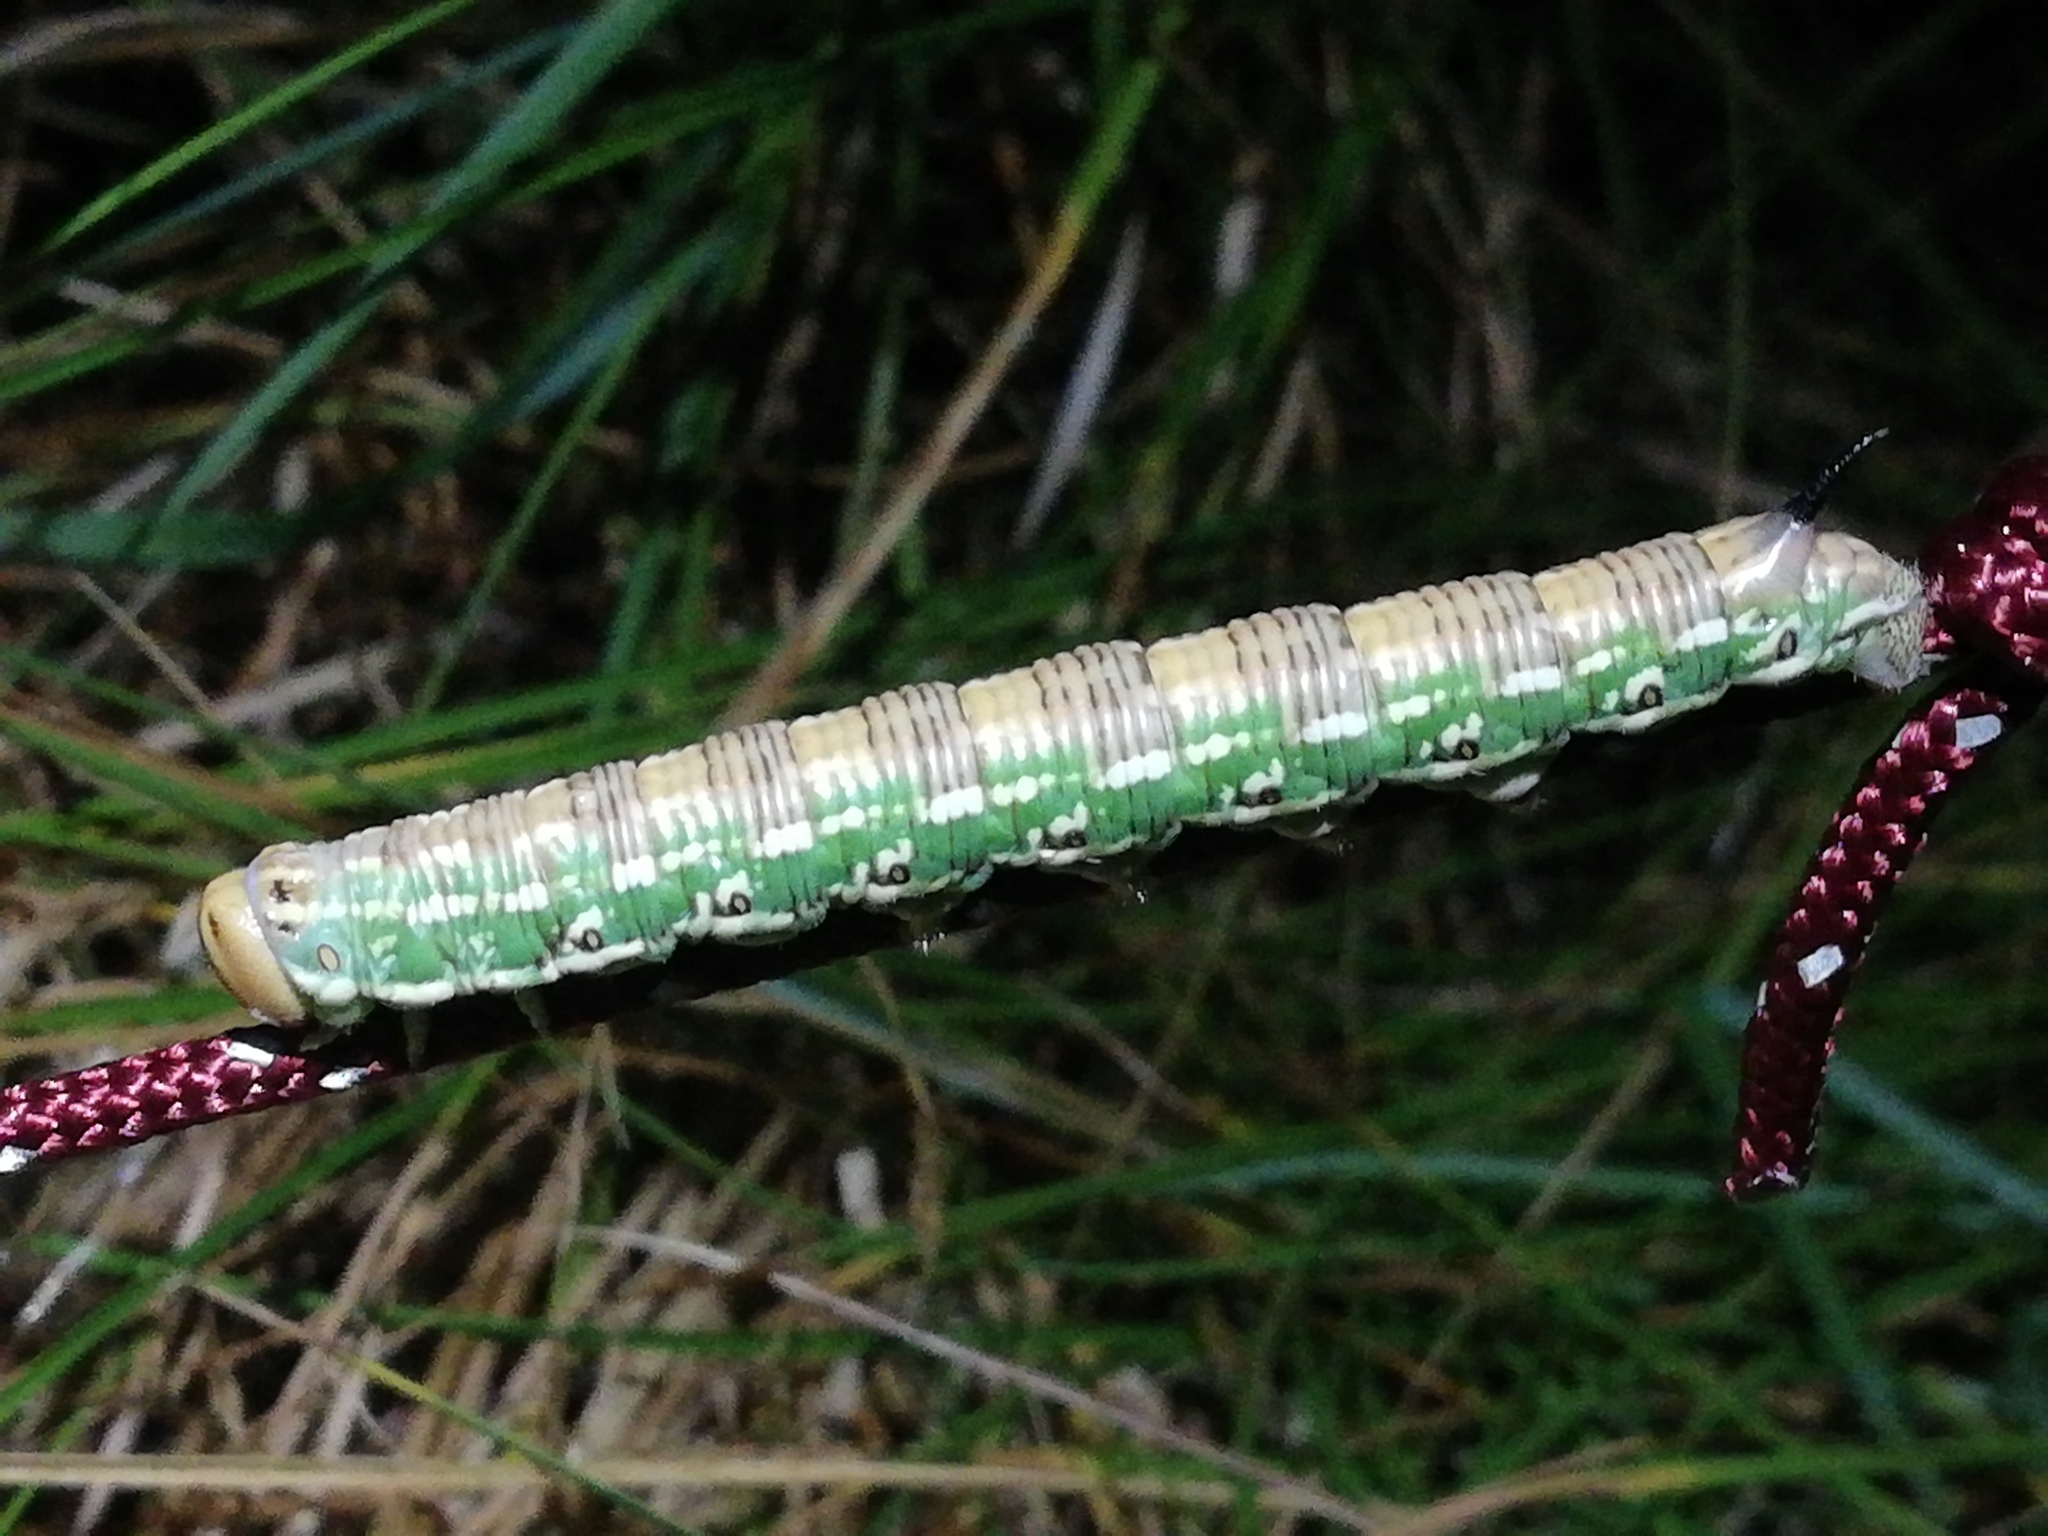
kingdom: Animalia
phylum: Arthropoda
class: Insecta
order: Lepidoptera
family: Sphingidae
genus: Sphinx
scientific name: Sphinx pinastri
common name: Pine hawk-moth
